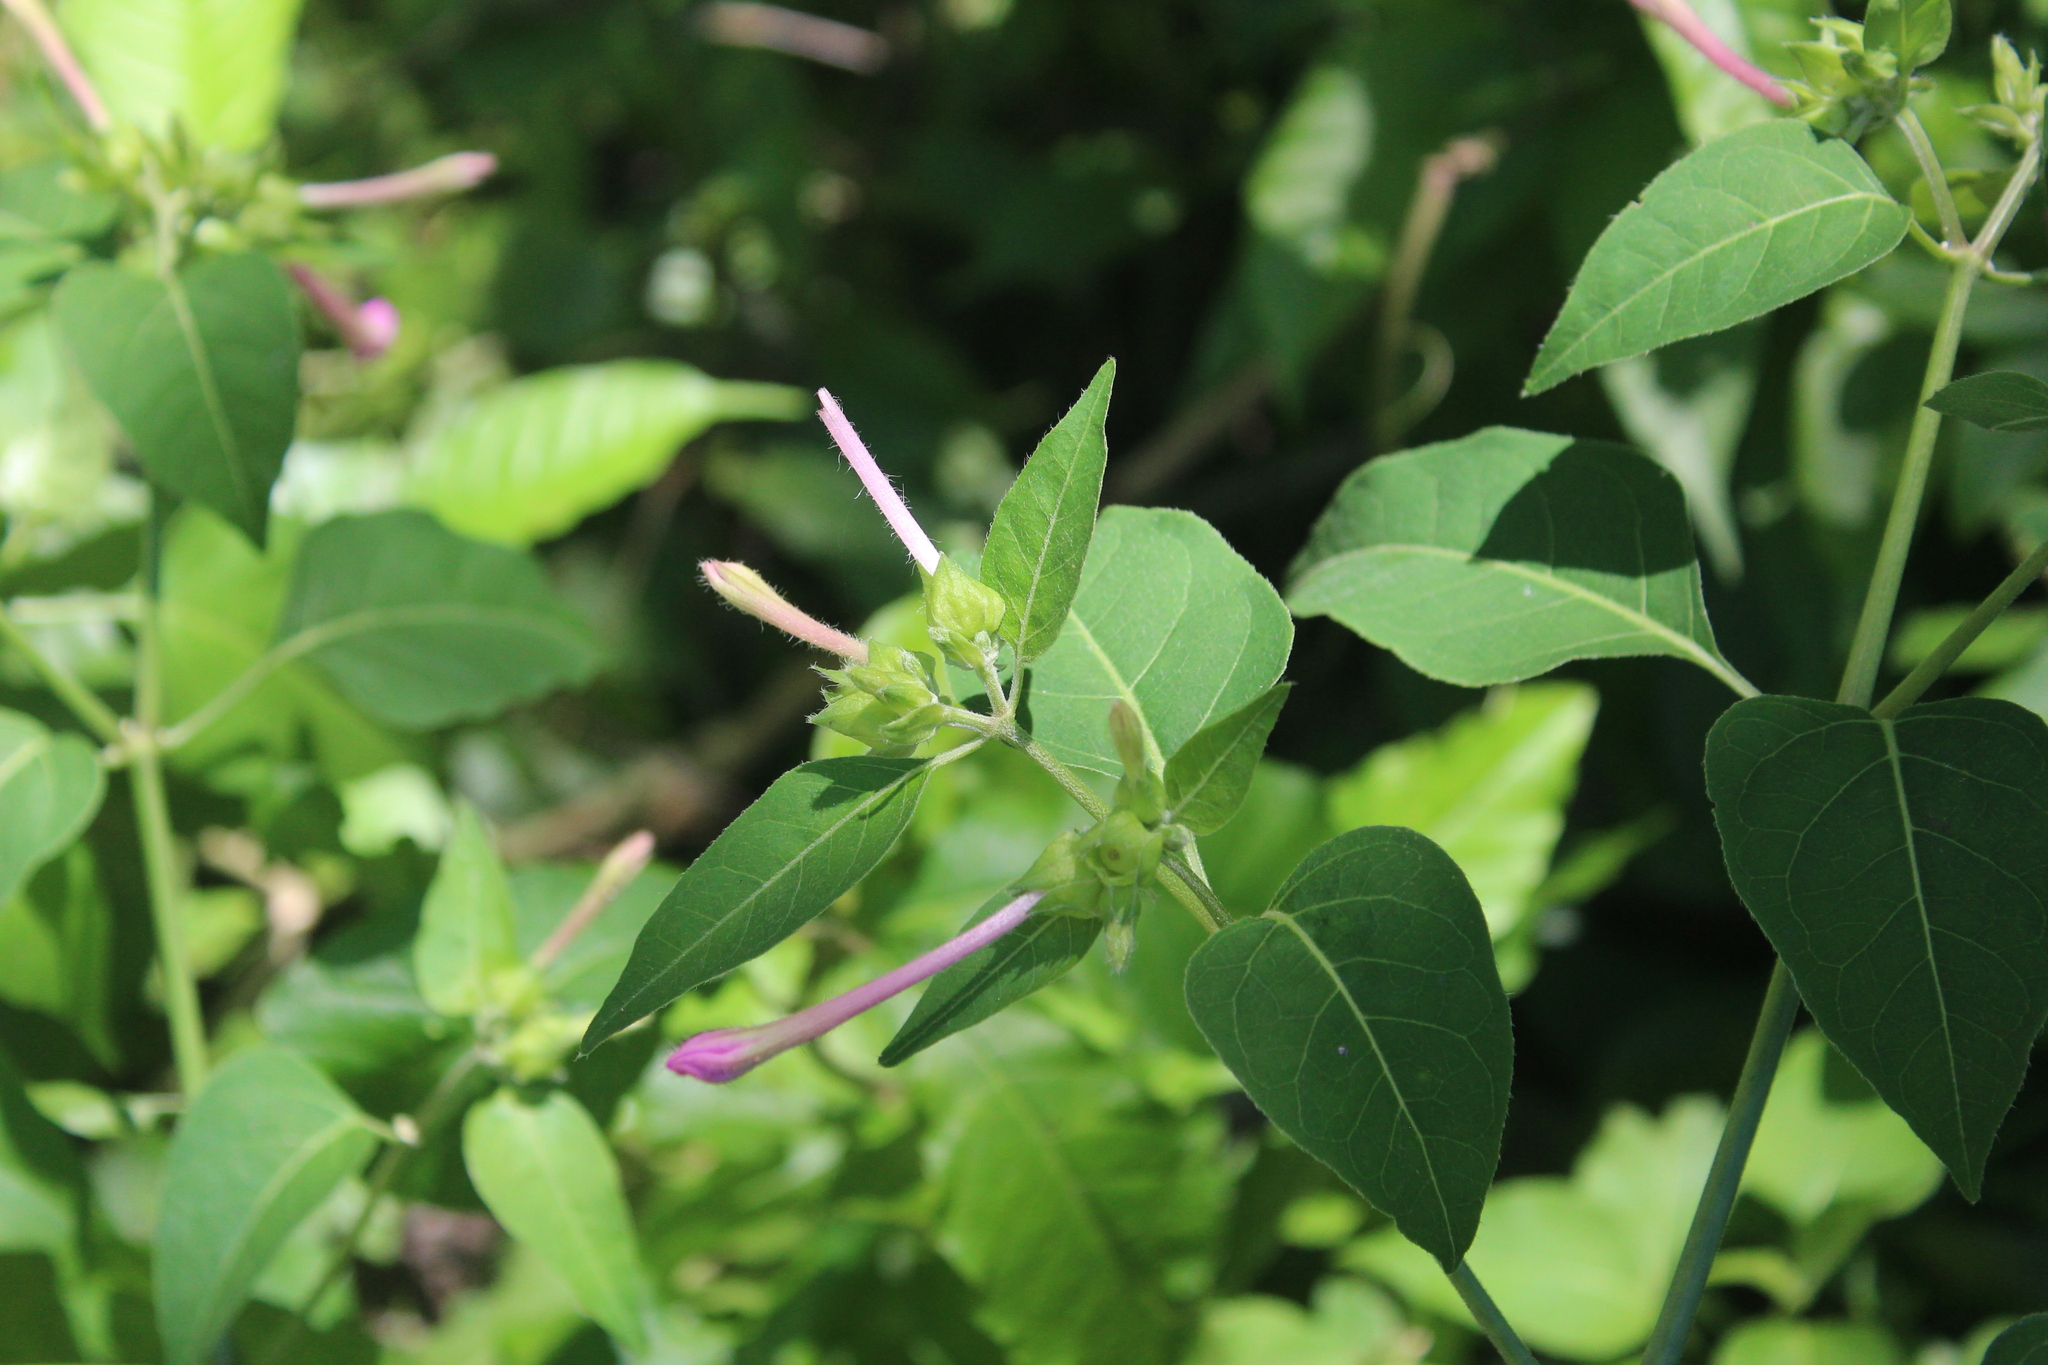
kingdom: Plantae
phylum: Tracheophyta
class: Magnoliopsida
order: Caryophyllales
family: Nyctaginaceae
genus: Mirabilis
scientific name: Mirabilis jalapa
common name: Marvel-of-peru
